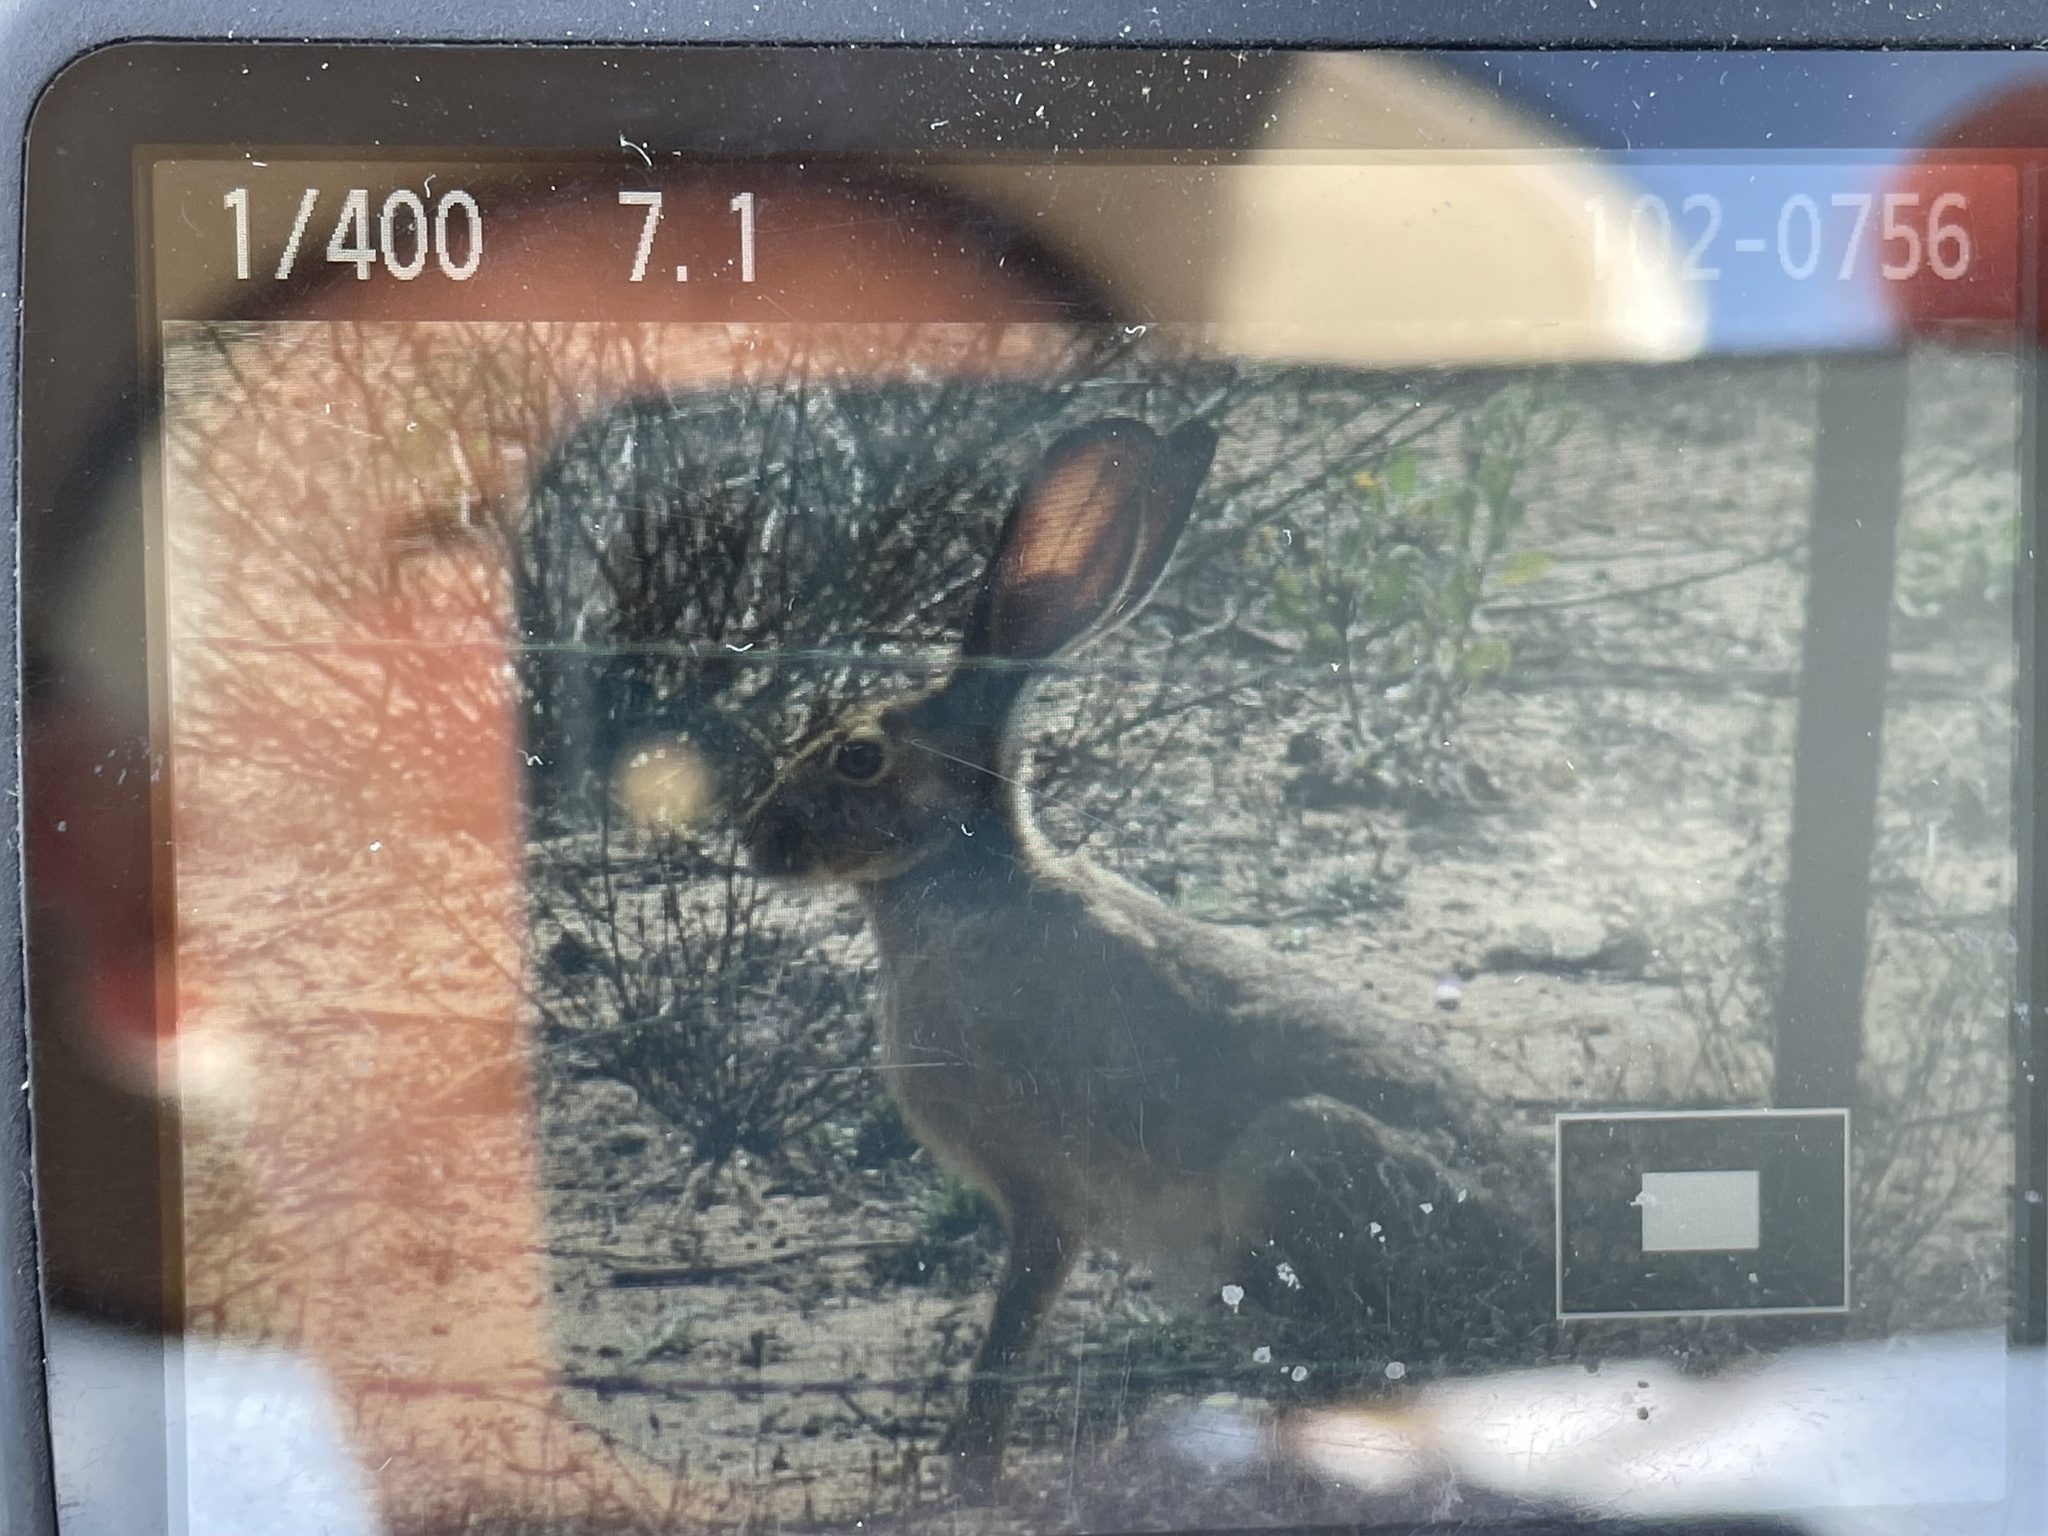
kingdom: Animalia
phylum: Chordata
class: Mammalia
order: Lagomorpha
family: Leporidae
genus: Lepus
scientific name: Lepus californicus
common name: Black-tailed jackrabbit
